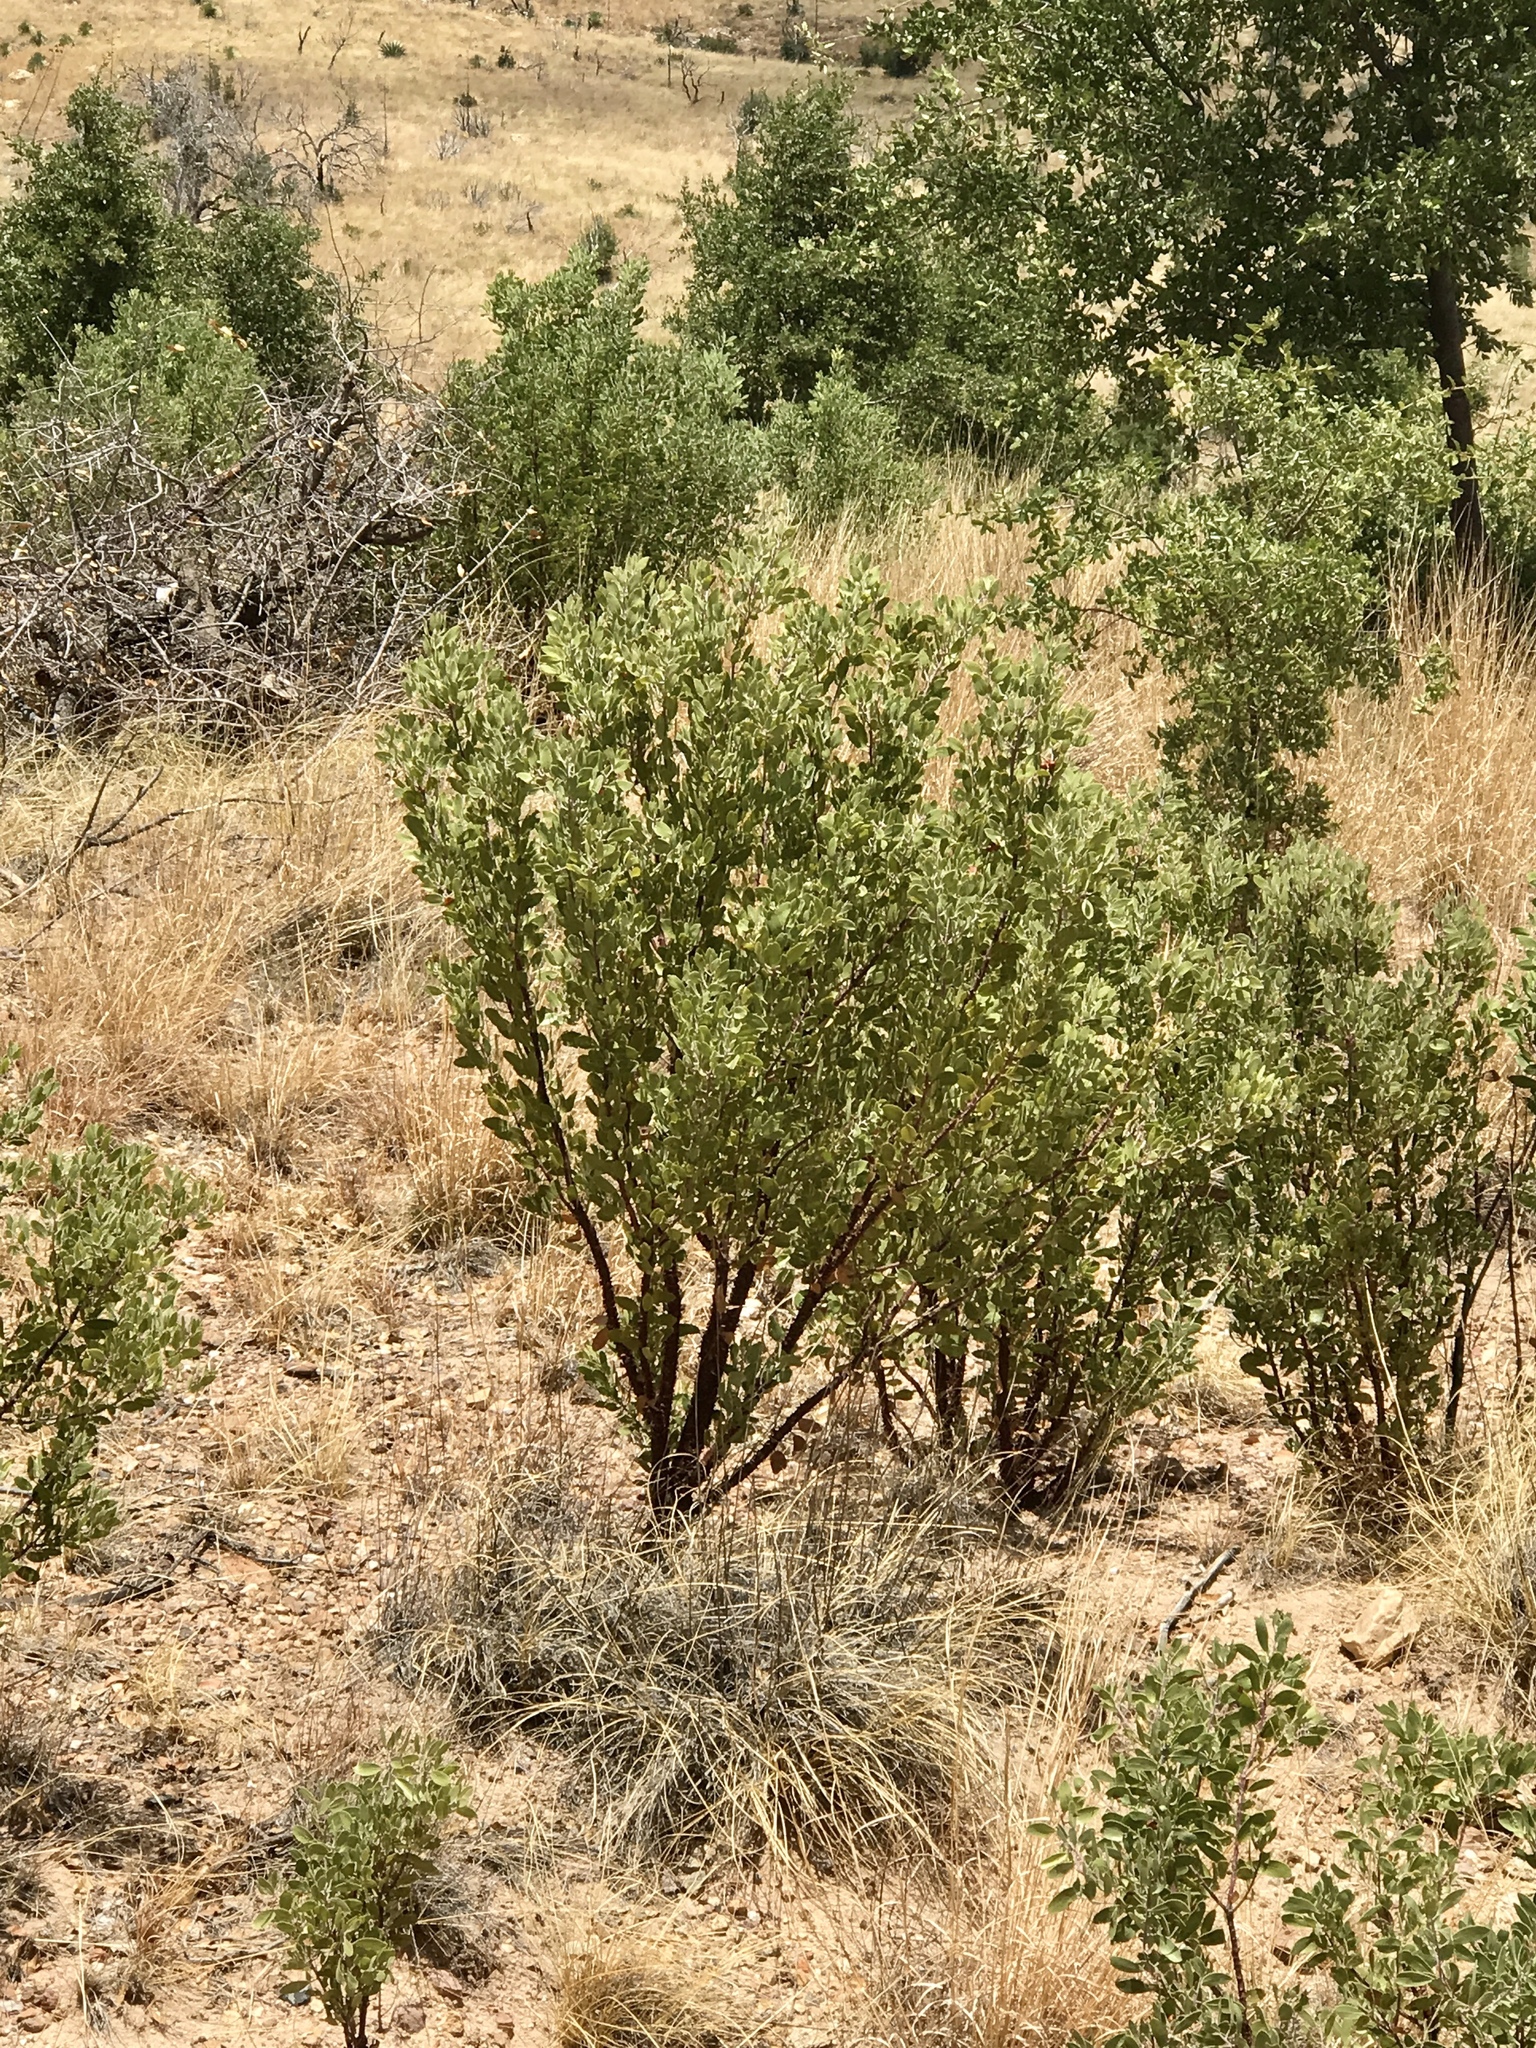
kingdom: Plantae
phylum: Tracheophyta
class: Magnoliopsida
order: Ericales
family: Ericaceae
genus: Arctostaphylos
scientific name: Arctostaphylos pungens
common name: Mexican manzanita
